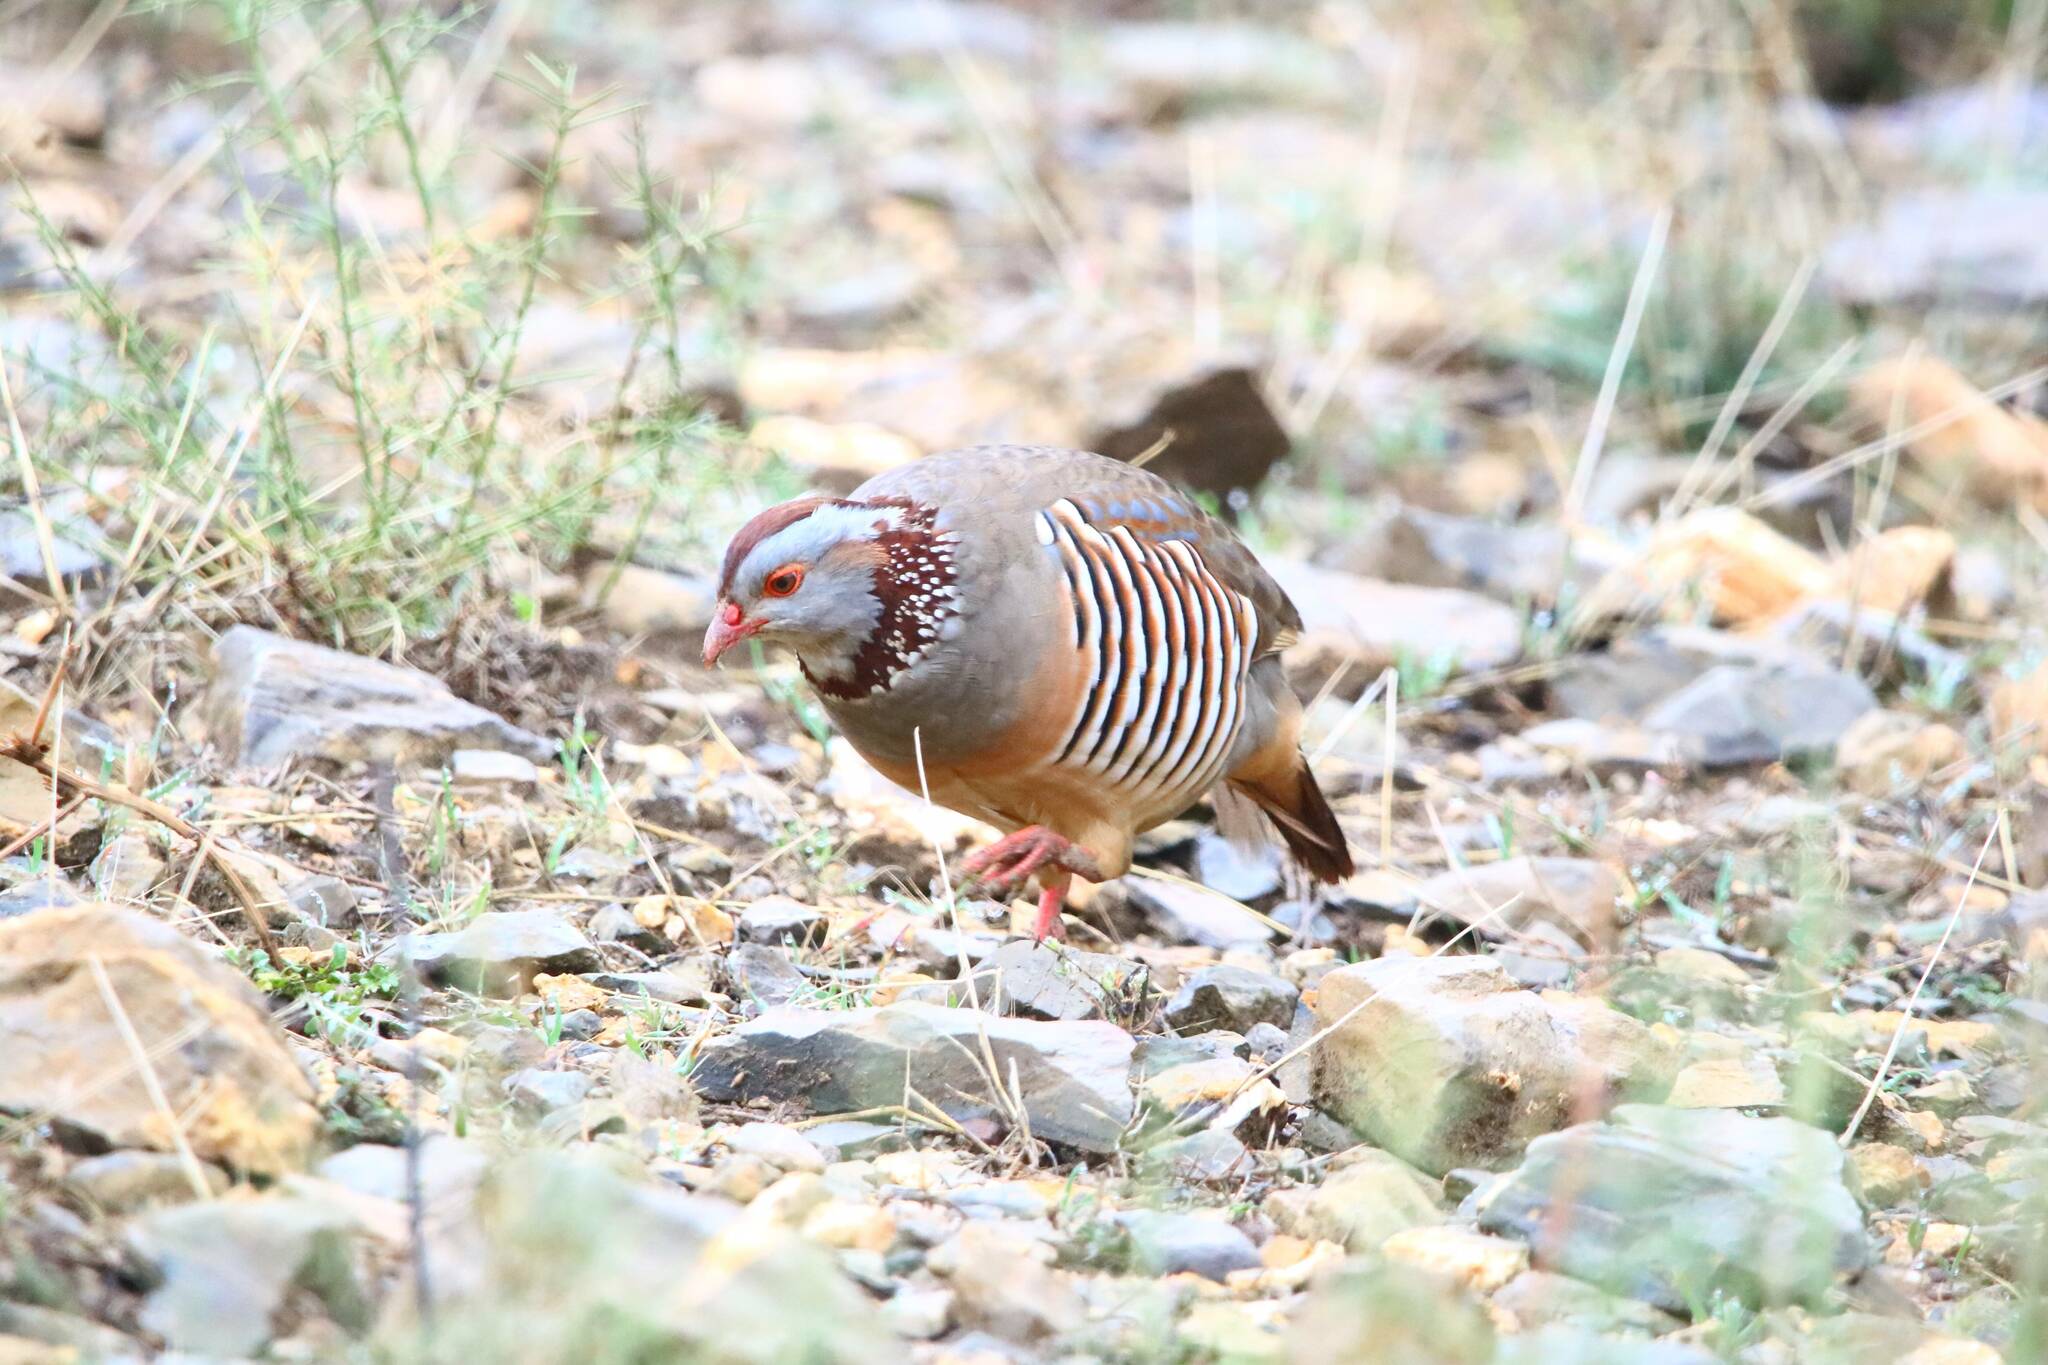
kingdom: Animalia
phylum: Chordata
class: Aves
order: Galliformes
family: Phasianidae
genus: Alectoris
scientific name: Alectoris barbara
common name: Barbary partridge
